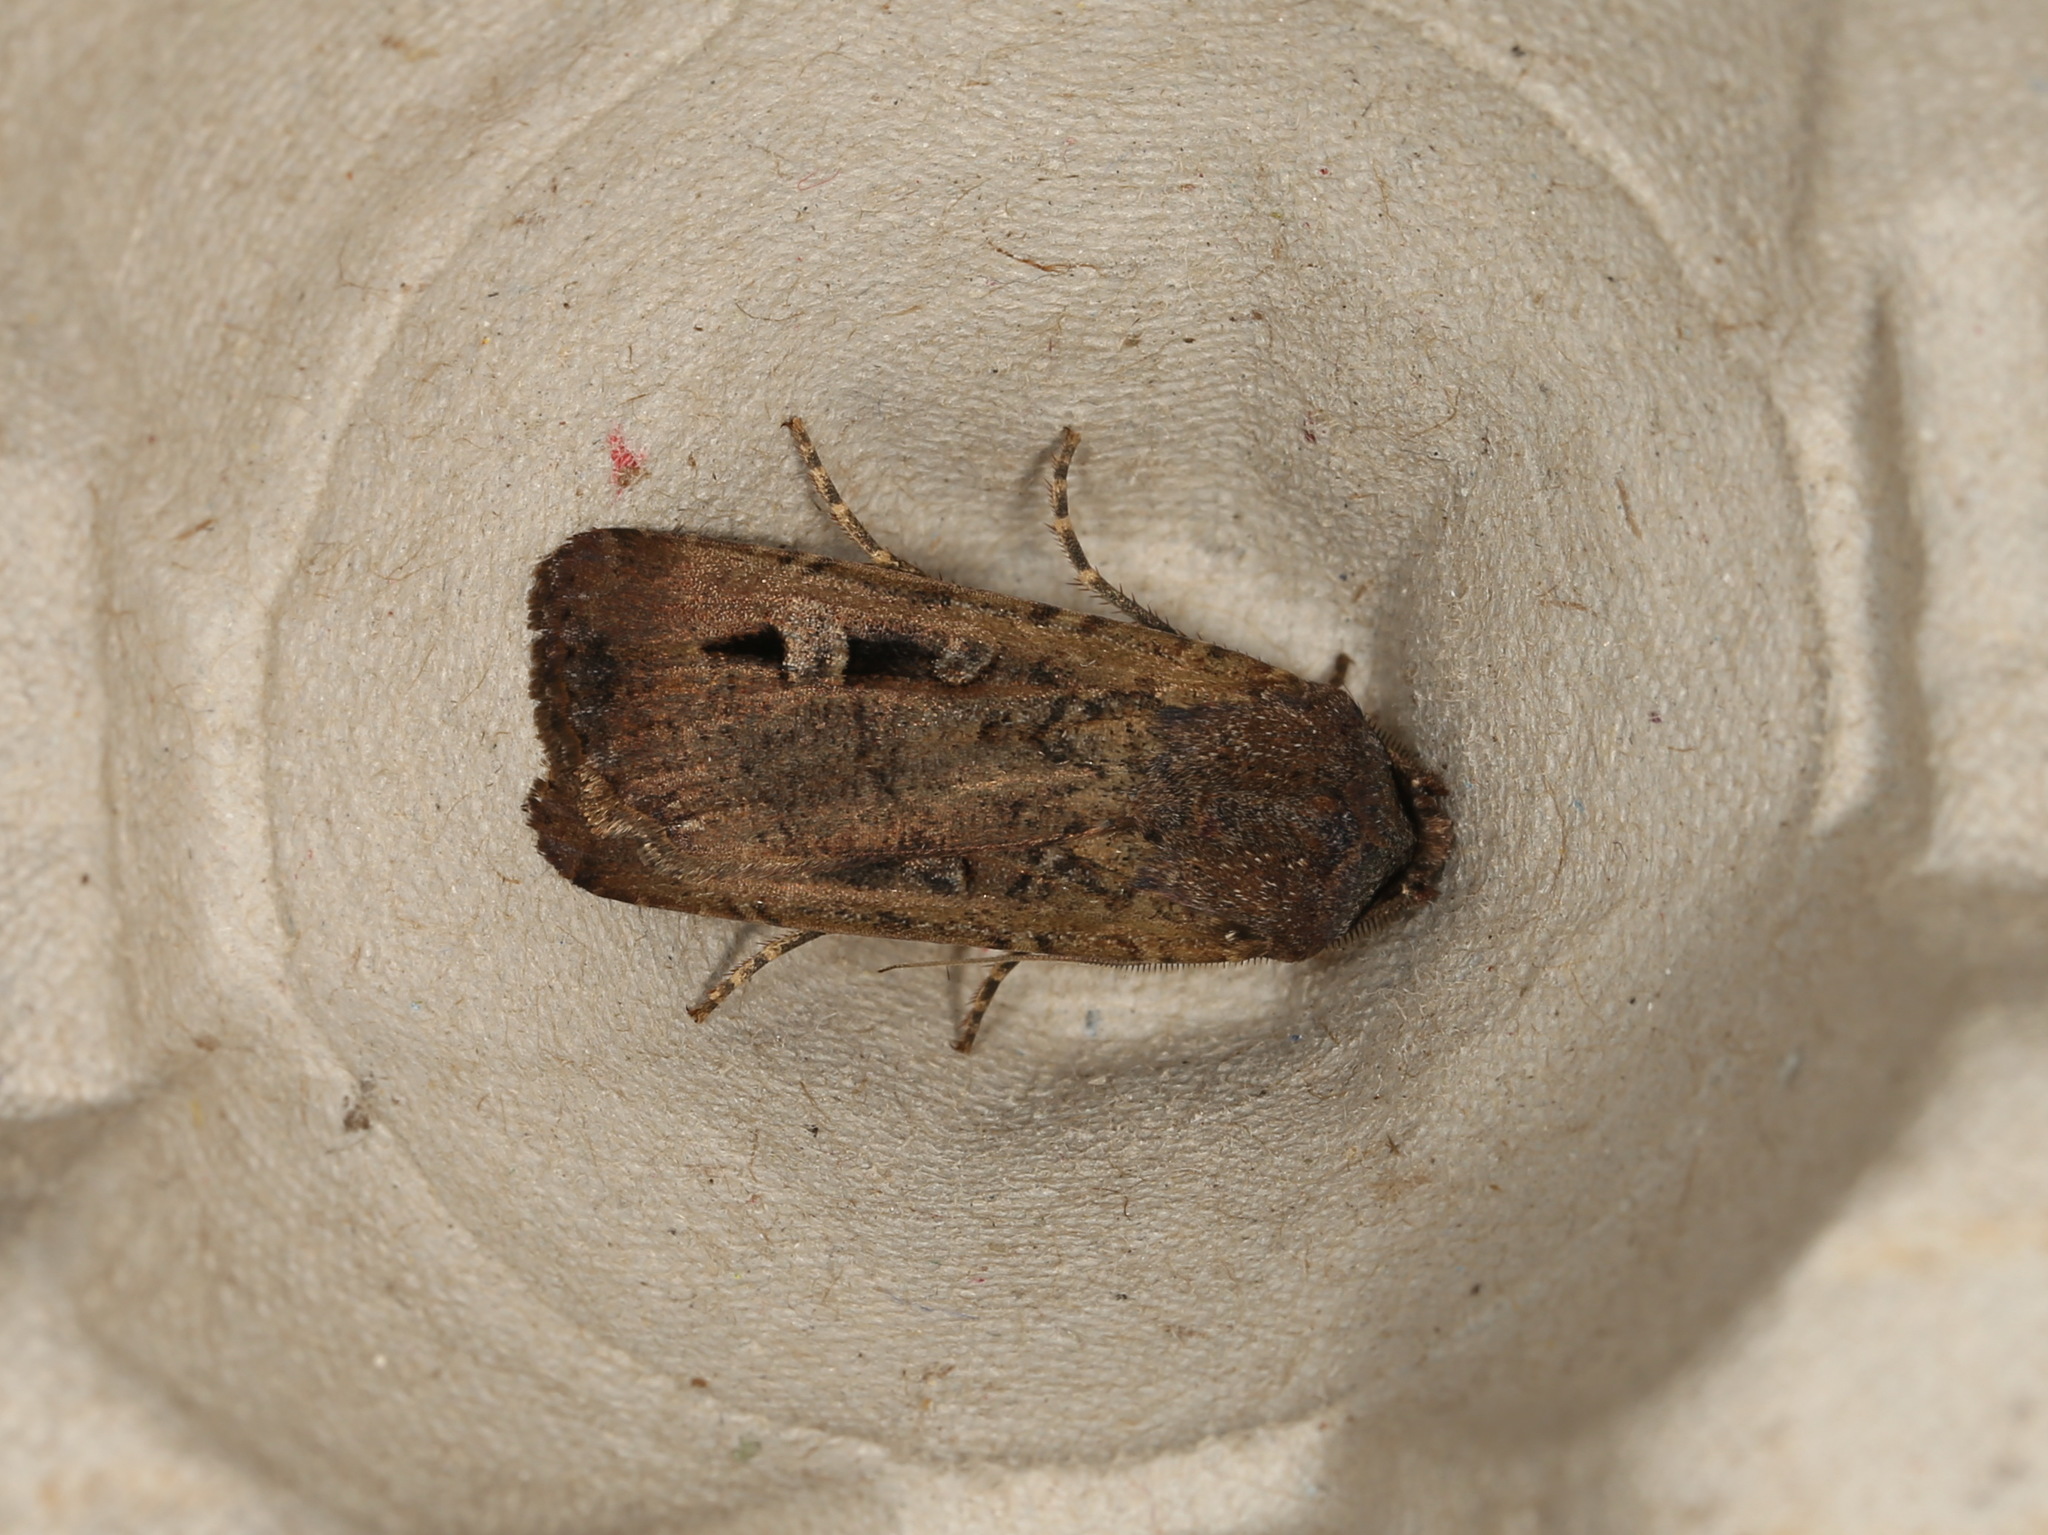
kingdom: Animalia
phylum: Arthropoda
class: Insecta
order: Lepidoptera
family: Noctuidae
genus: Agrotis
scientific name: Agrotis infusa
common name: Bogong moth
